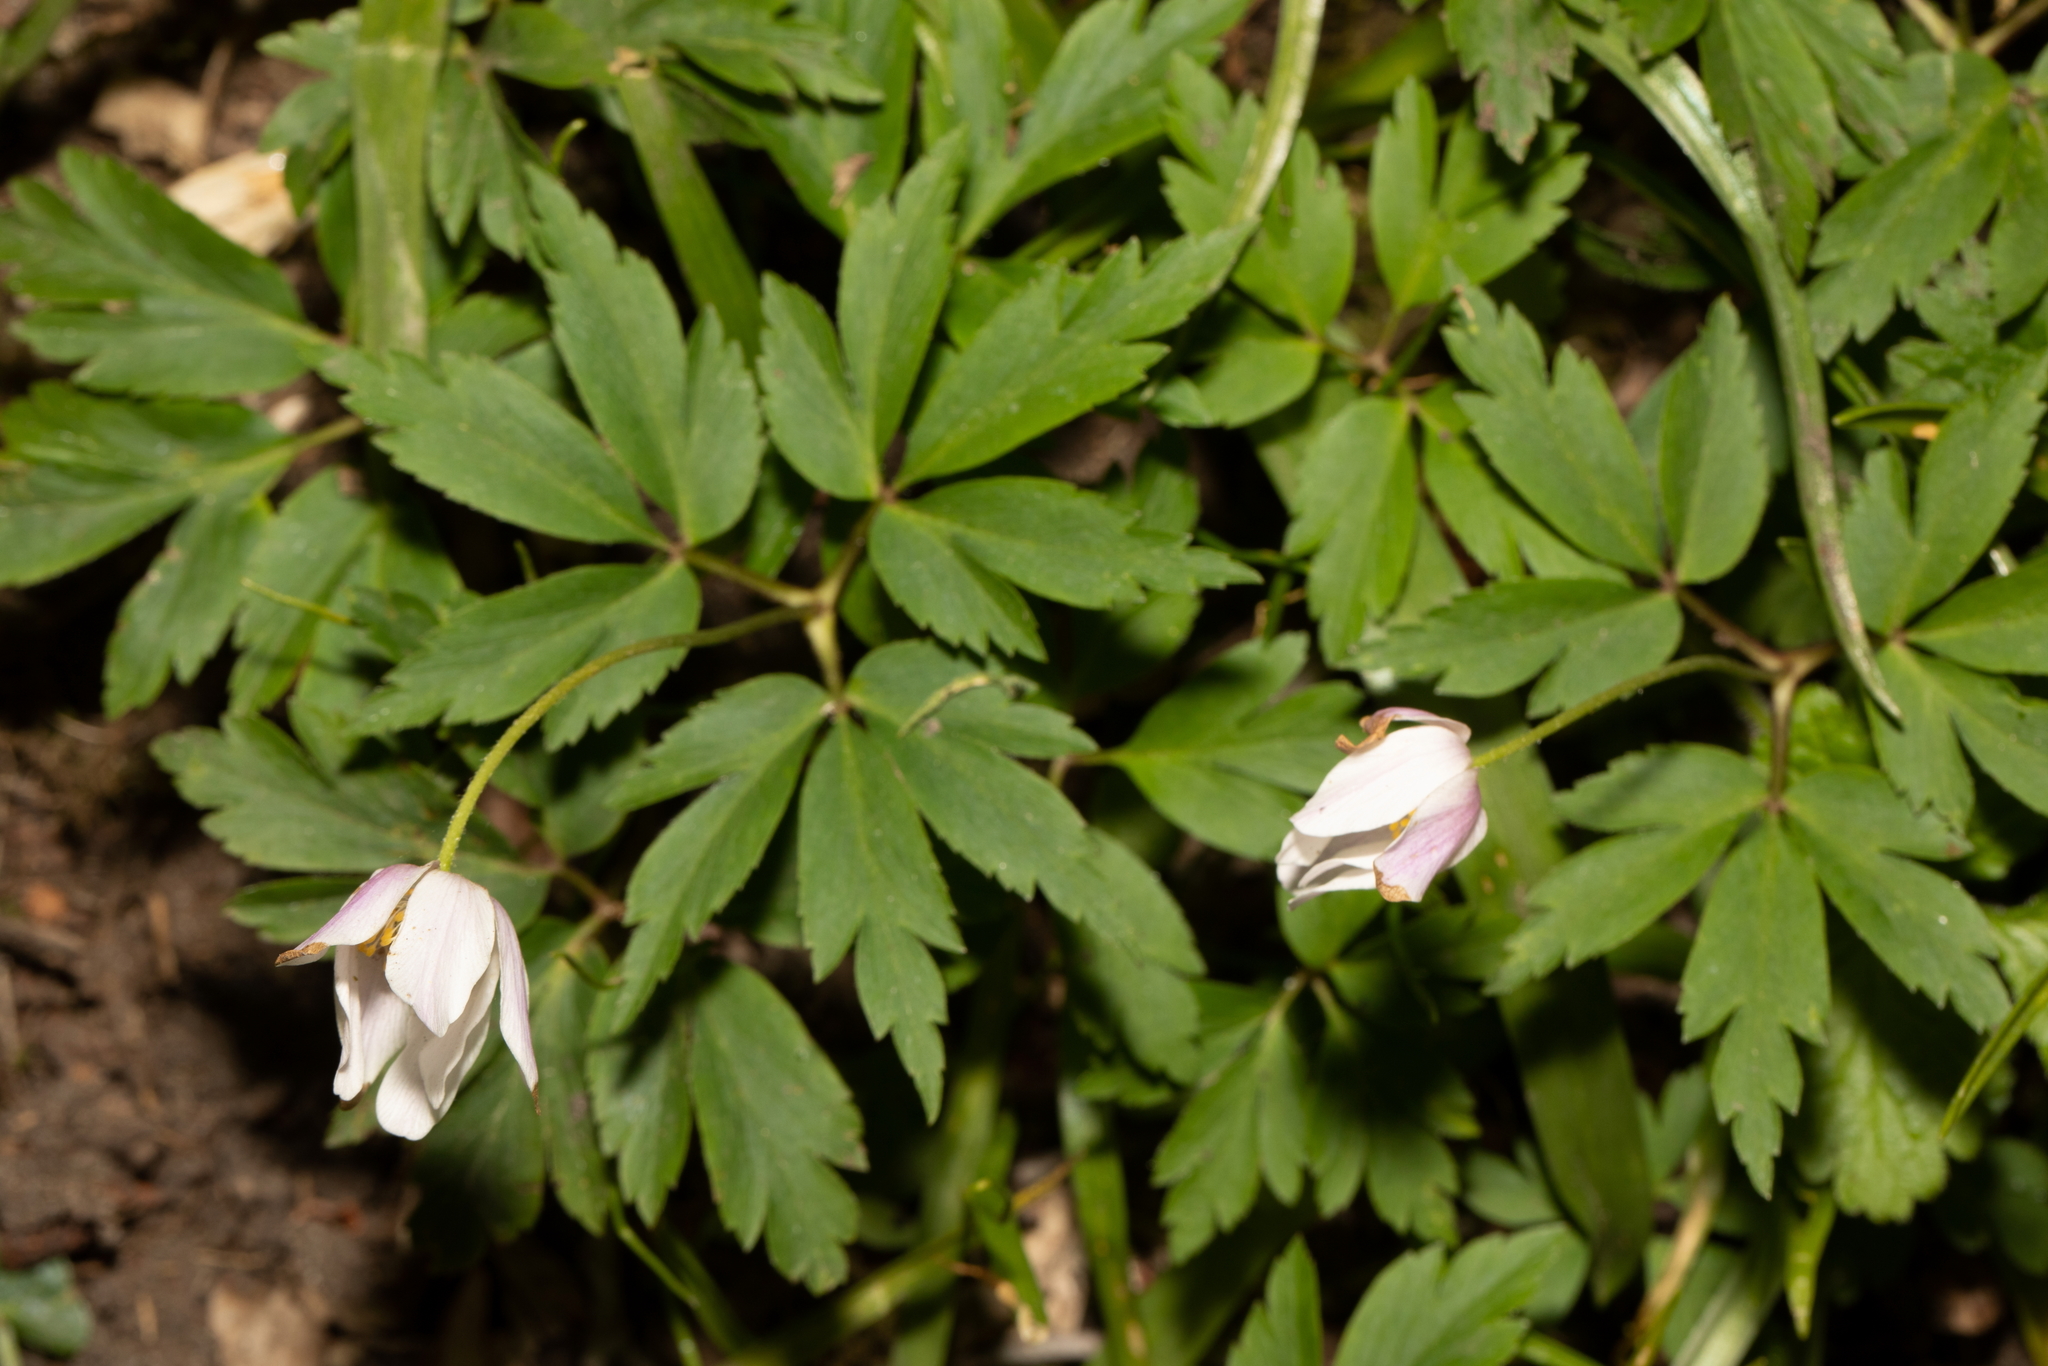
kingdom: Plantae
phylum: Tracheophyta
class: Magnoliopsida
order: Ranunculales
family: Ranunculaceae
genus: Anemone
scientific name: Anemone nemorosa
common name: Wood anemone
